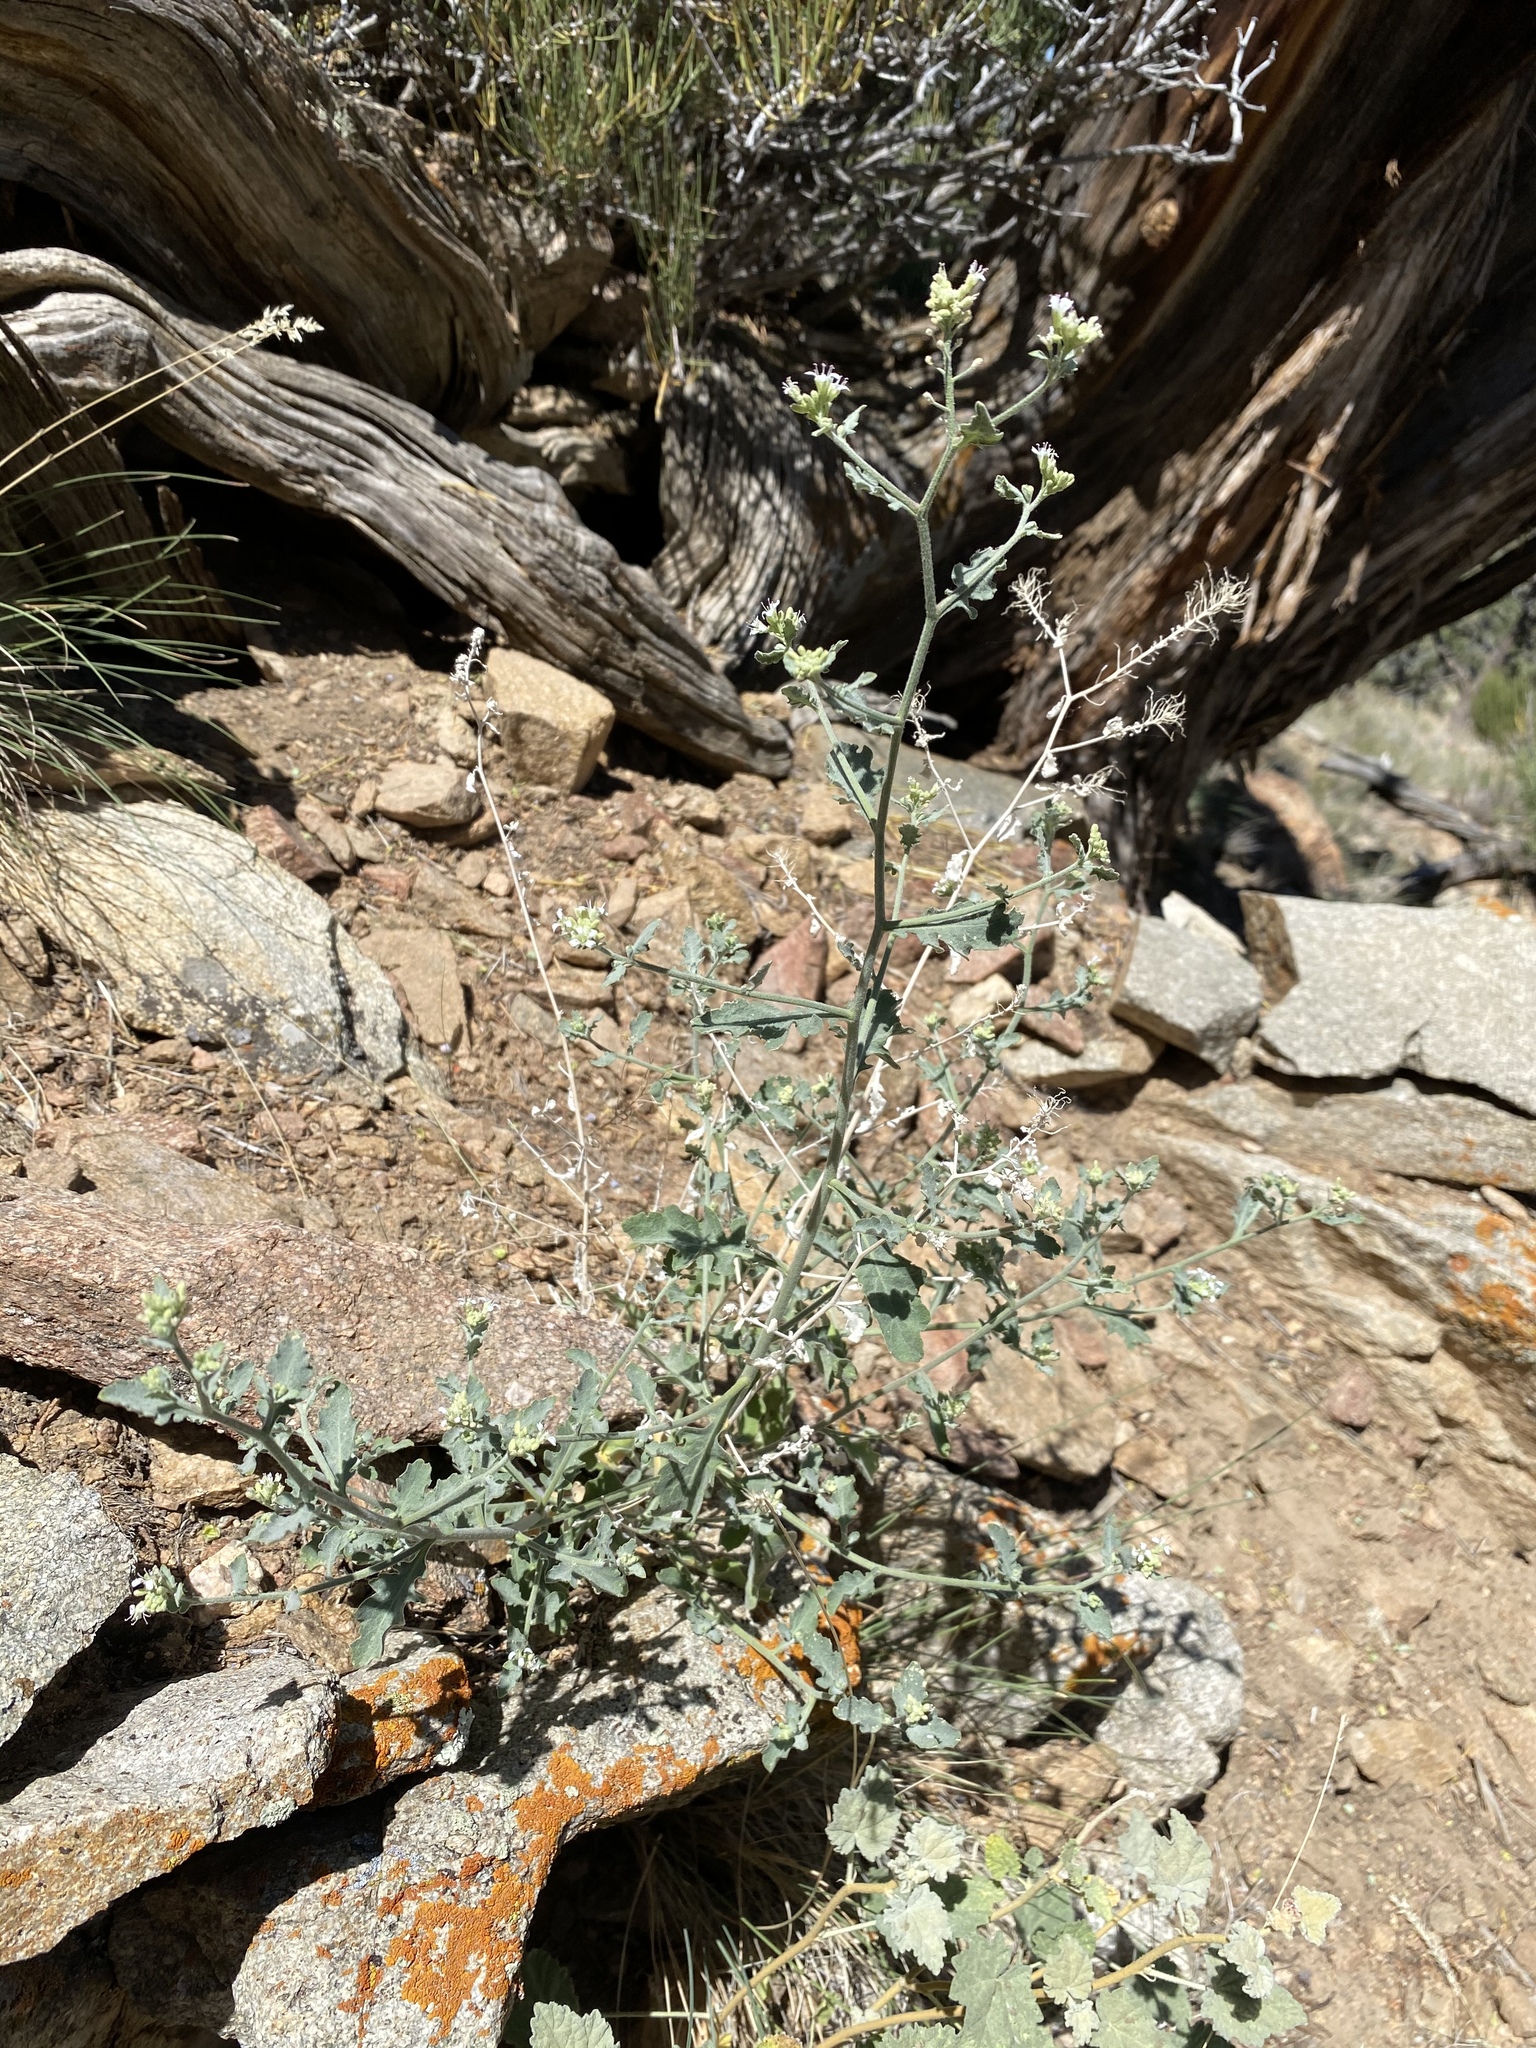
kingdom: Plantae
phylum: Tracheophyta
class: Magnoliopsida
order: Brassicales
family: Brassicaceae
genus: Halimolobos
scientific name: Halimolobos jaegeri
